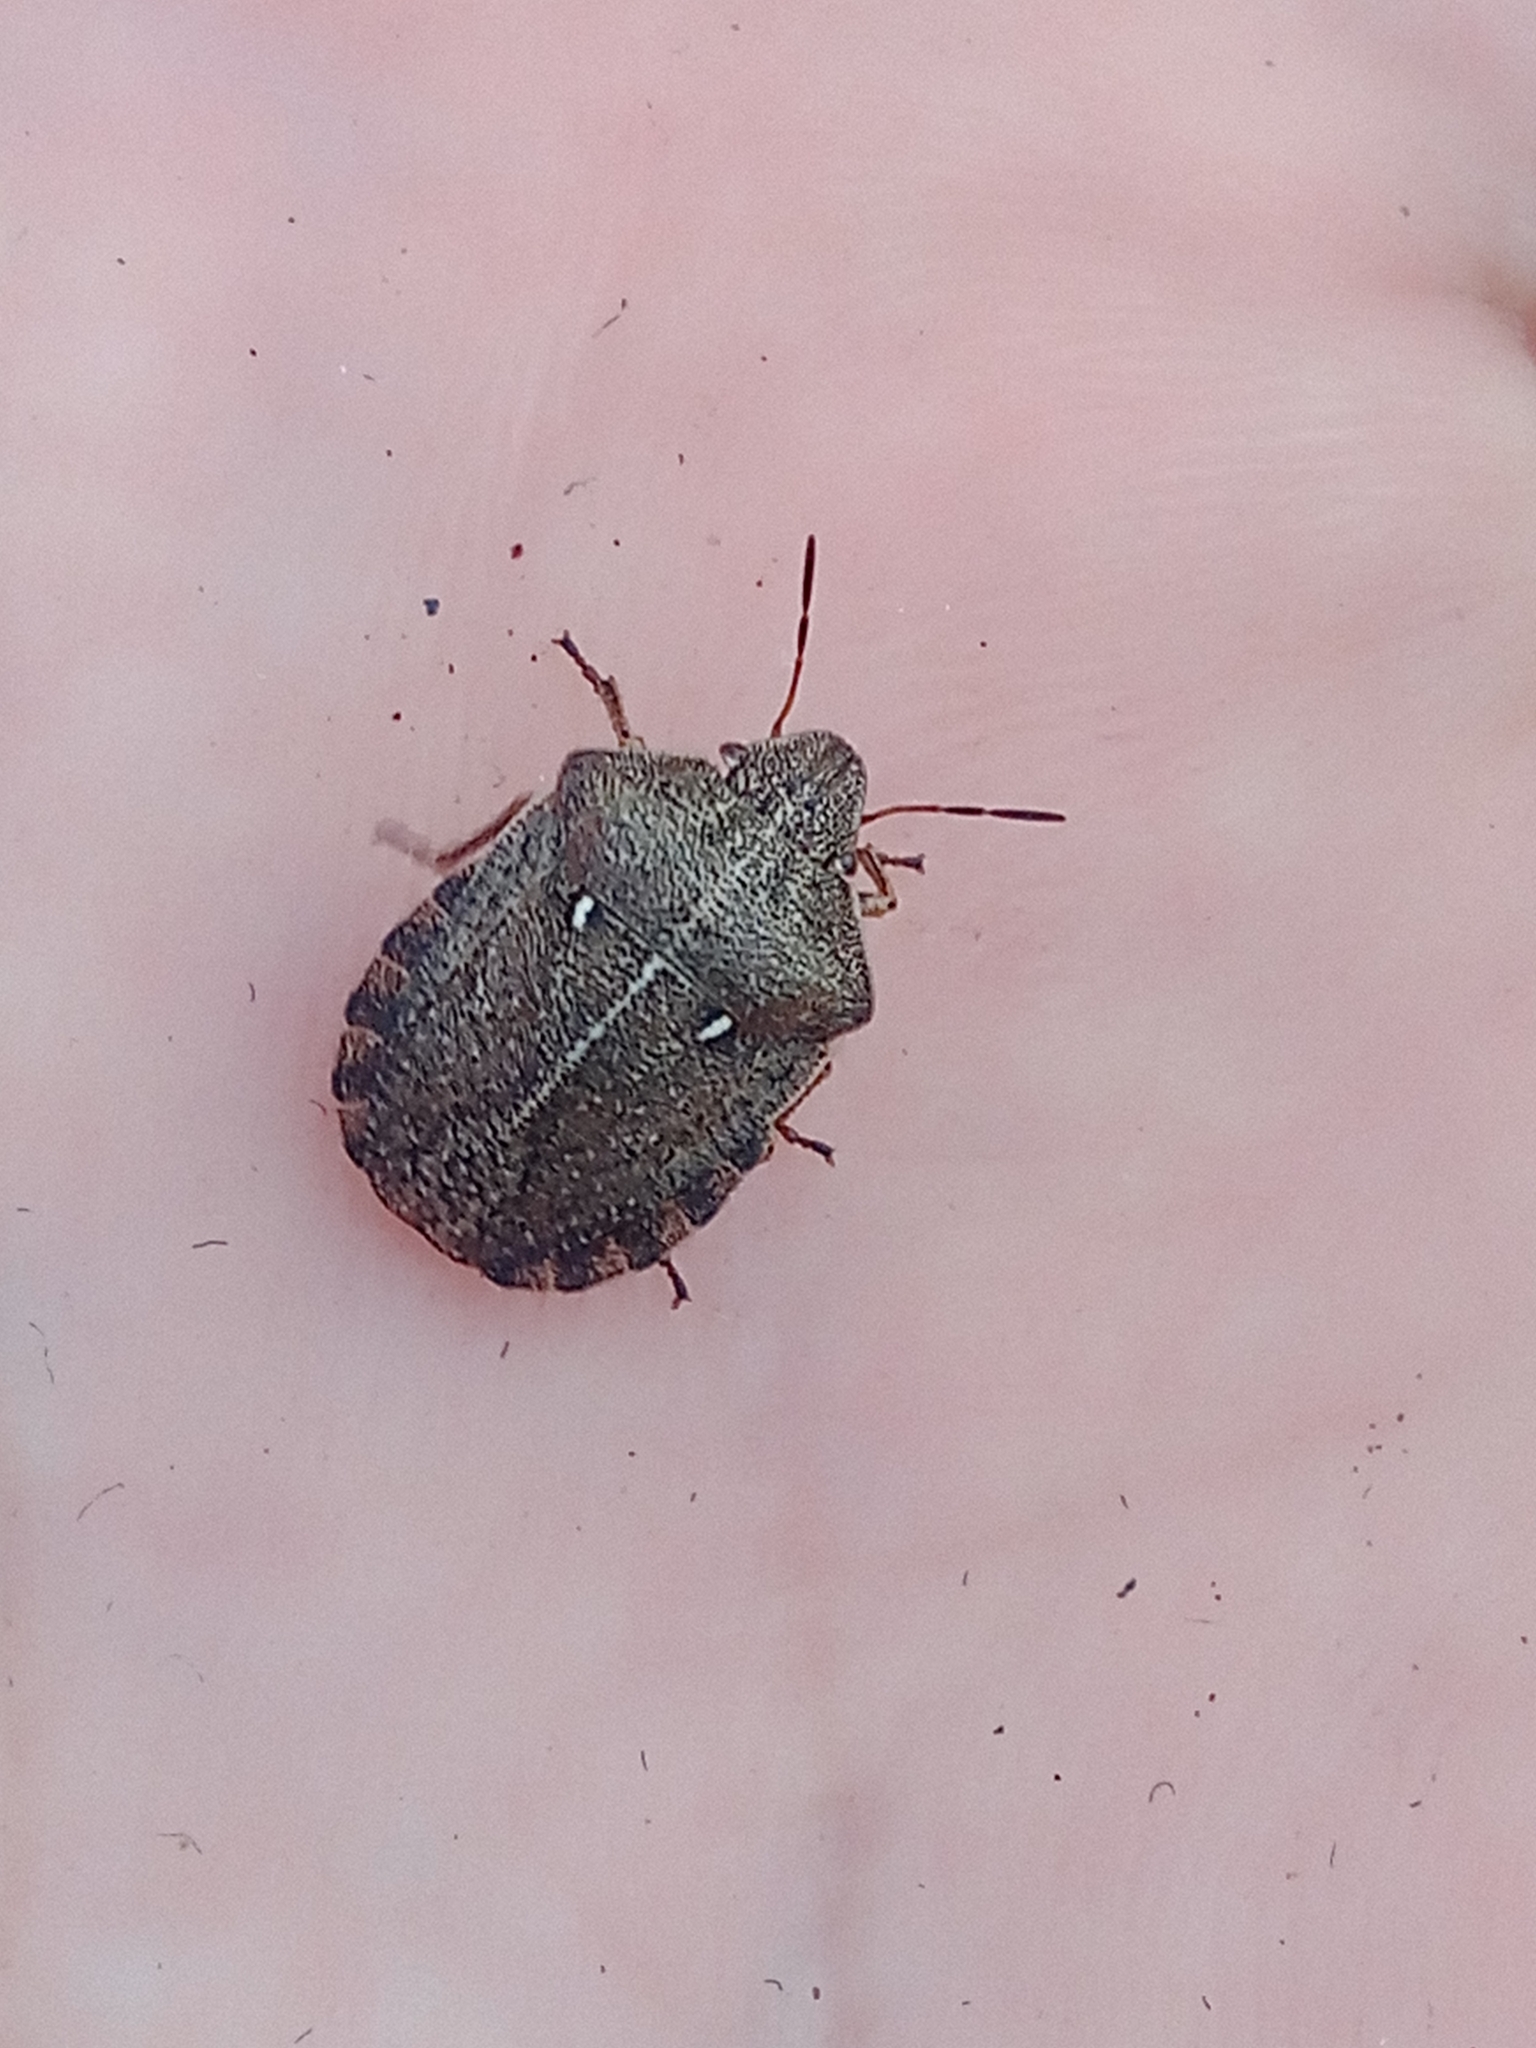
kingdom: Animalia
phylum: Arthropoda
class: Insecta
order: Hemiptera
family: Scutelleridae
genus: Eurygaster
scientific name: Eurygaster testudinaria
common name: Tortoise bug
